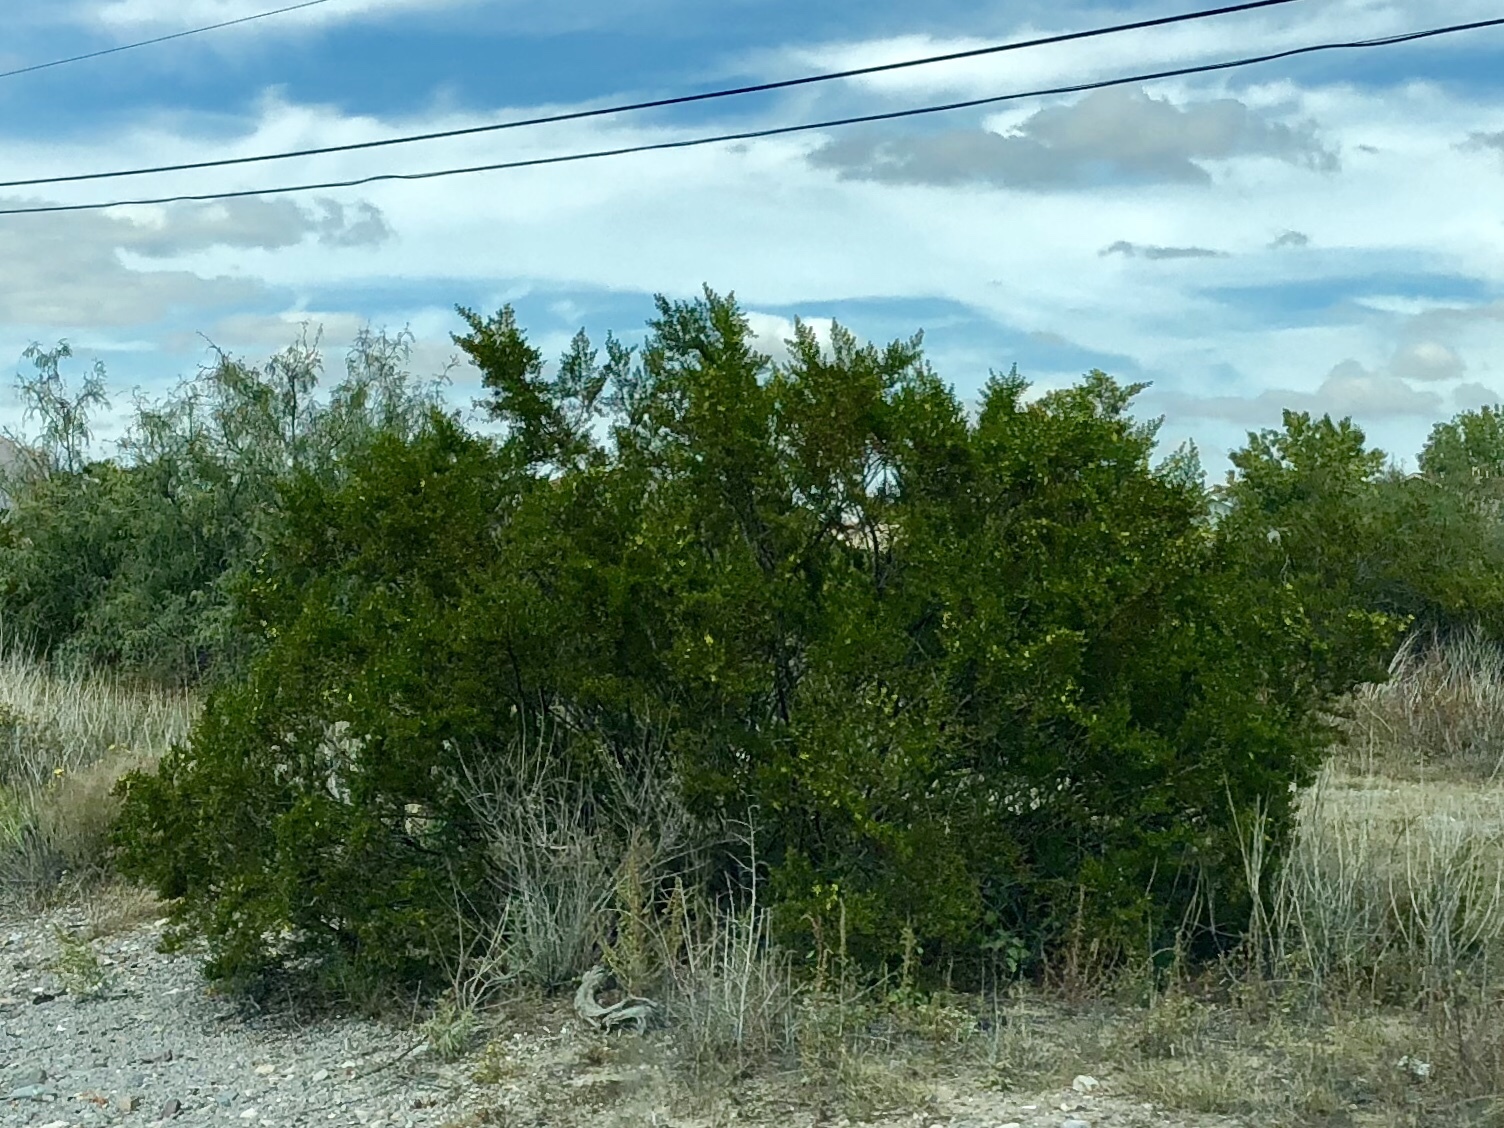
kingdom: Plantae
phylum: Tracheophyta
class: Magnoliopsida
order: Zygophyllales
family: Zygophyllaceae
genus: Larrea
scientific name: Larrea tridentata
